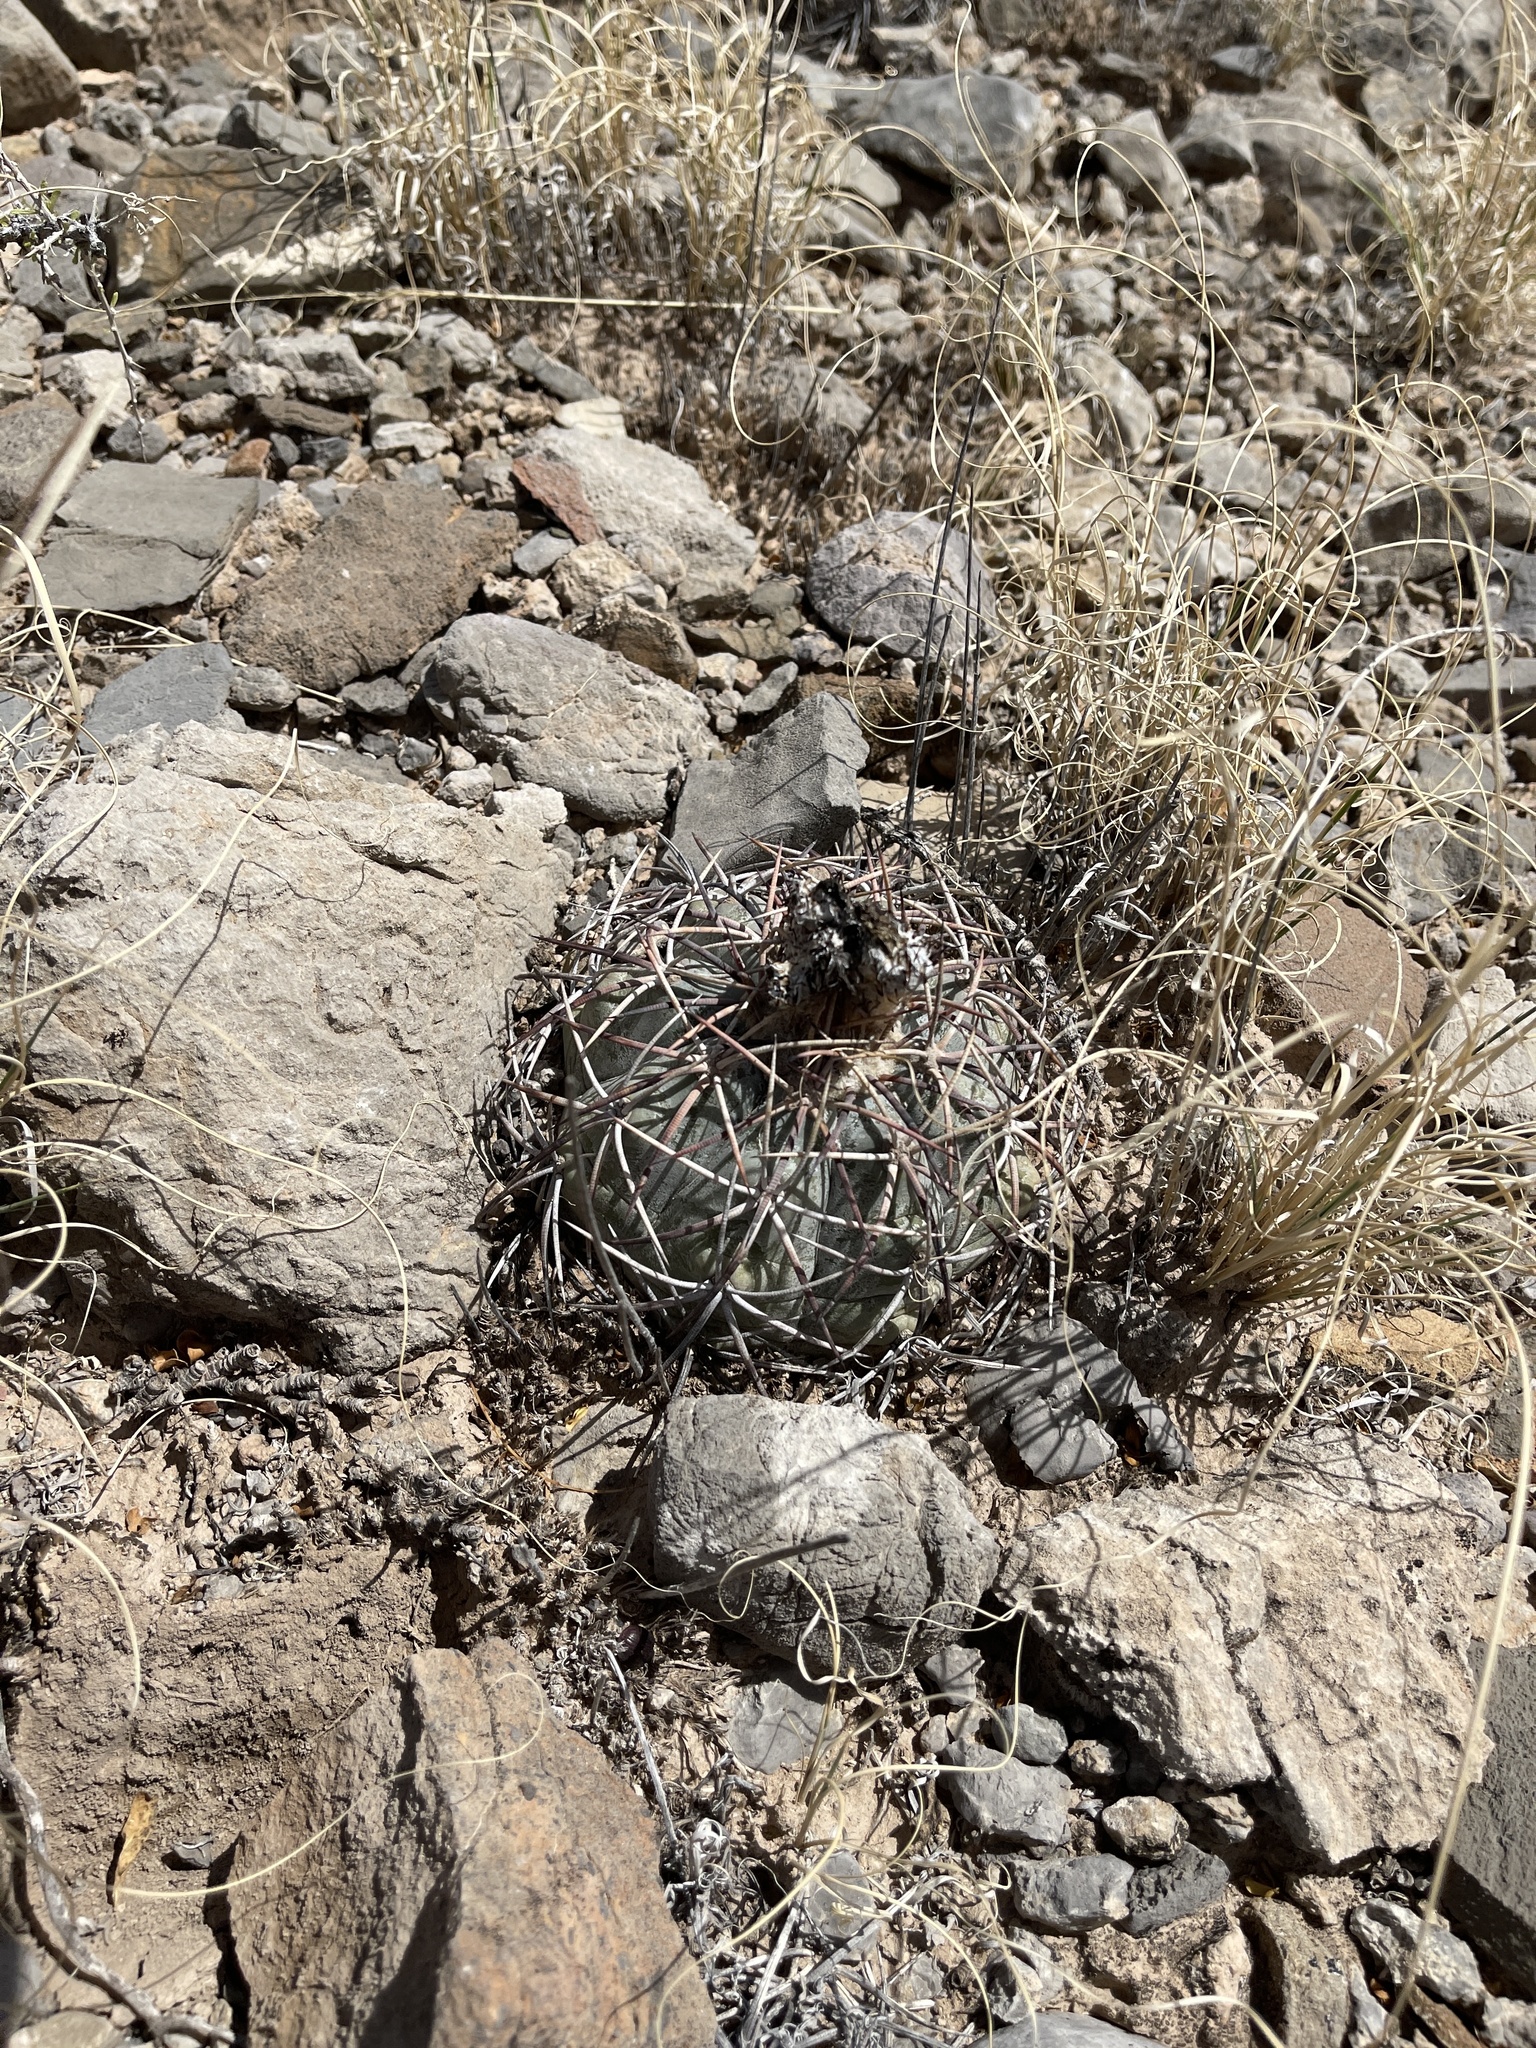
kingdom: Plantae
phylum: Tracheophyta
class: Magnoliopsida
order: Caryophyllales
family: Cactaceae
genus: Echinocactus
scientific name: Echinocactus horizonthalonius
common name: Devilshead
